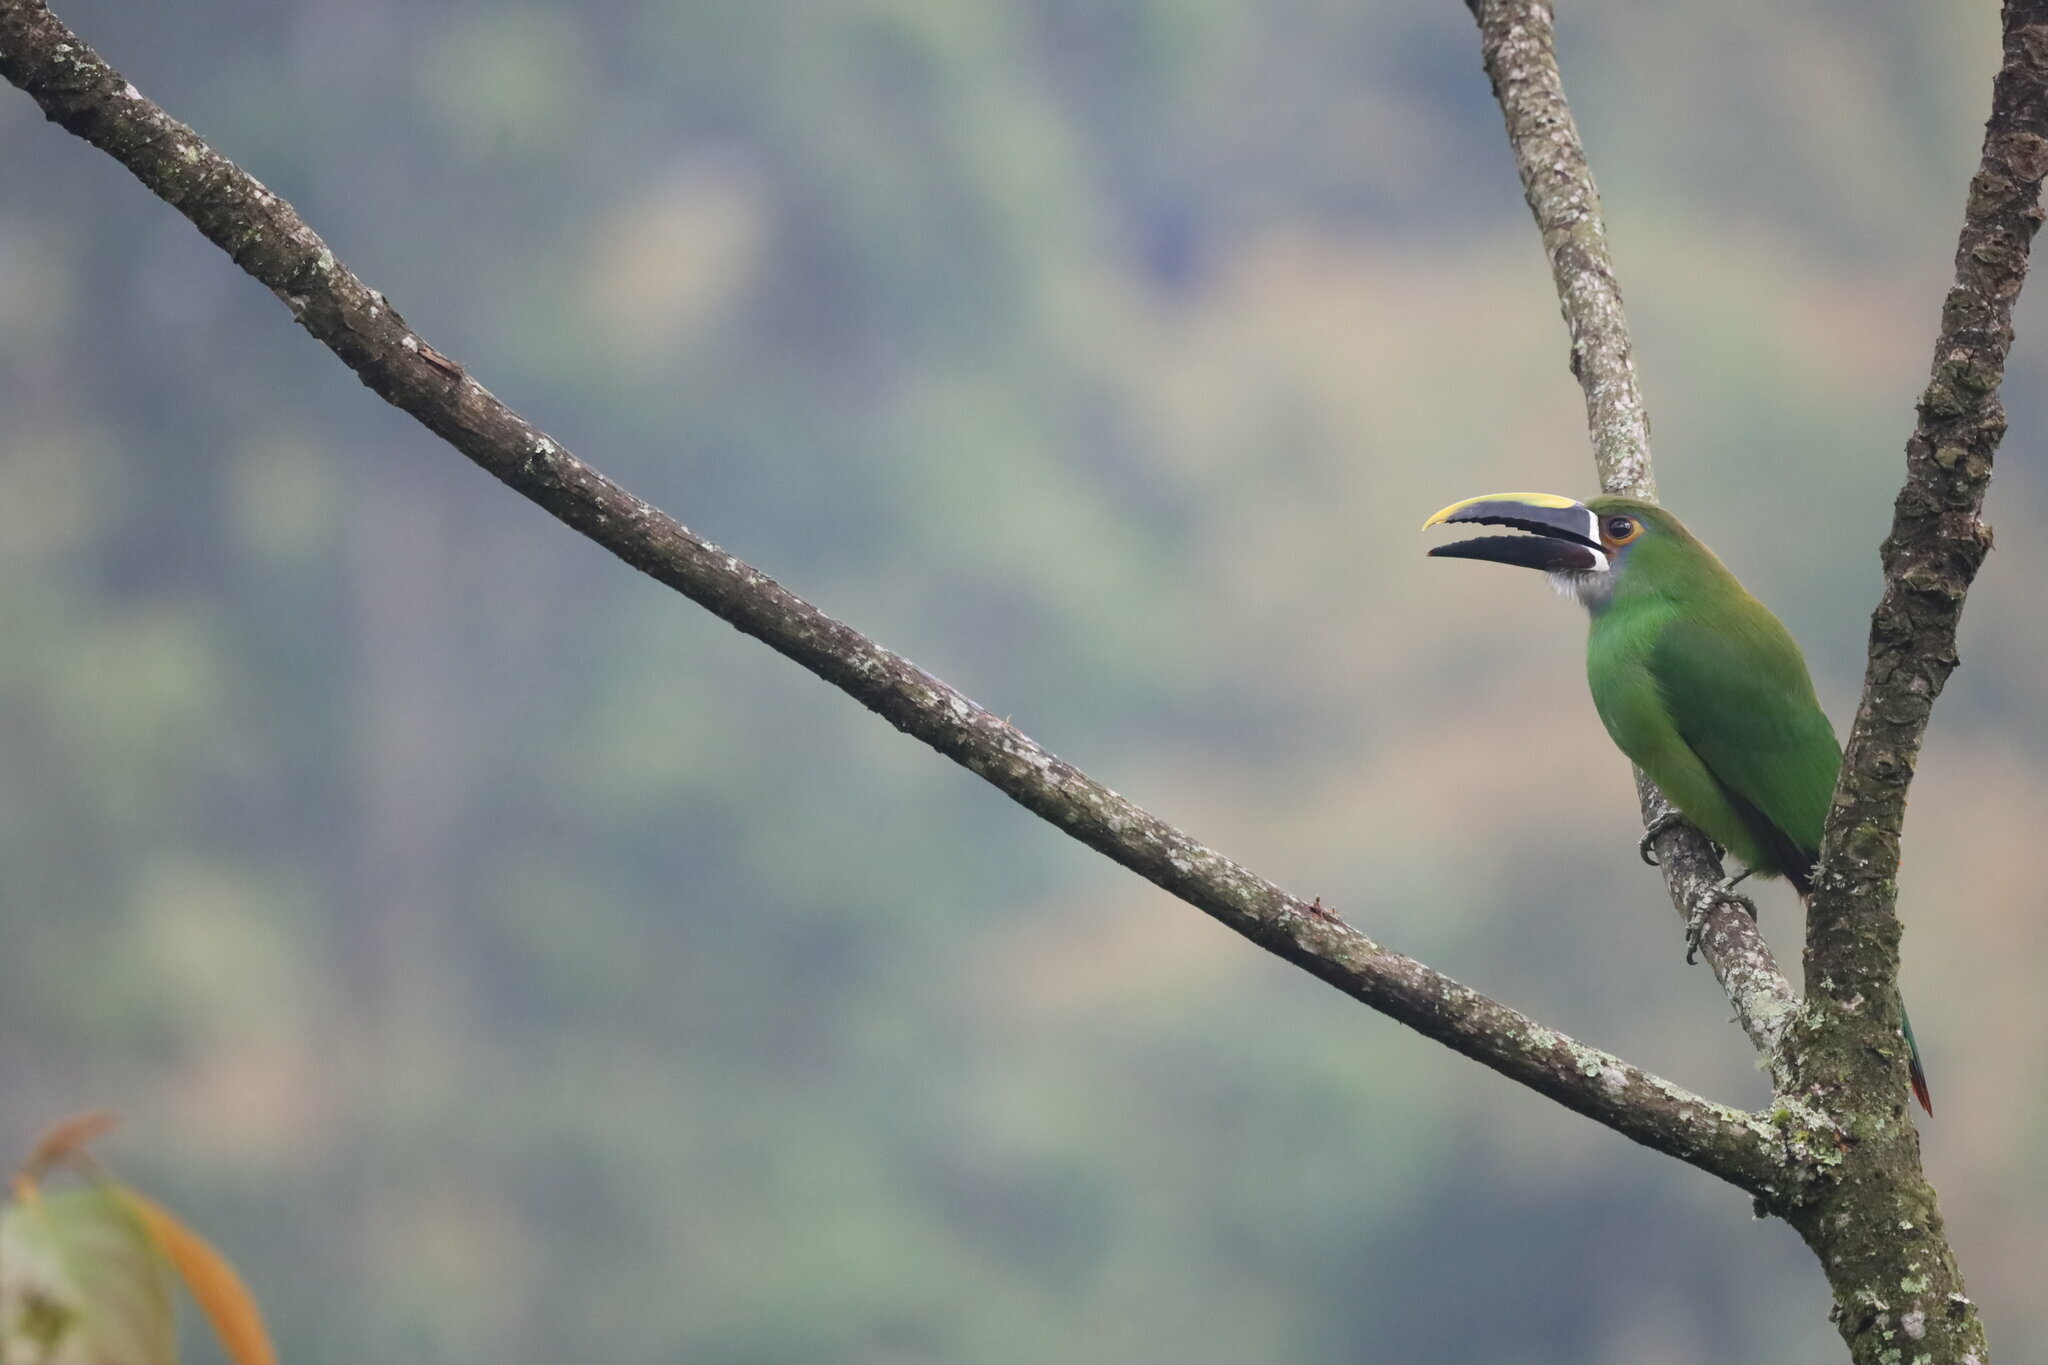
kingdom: Animalia
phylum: Chordata
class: Aves
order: Piciformes
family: Ramphastidae
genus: Aulacorhynchus
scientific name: Aulacorhynchus albivitta
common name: White-throated toucanet
